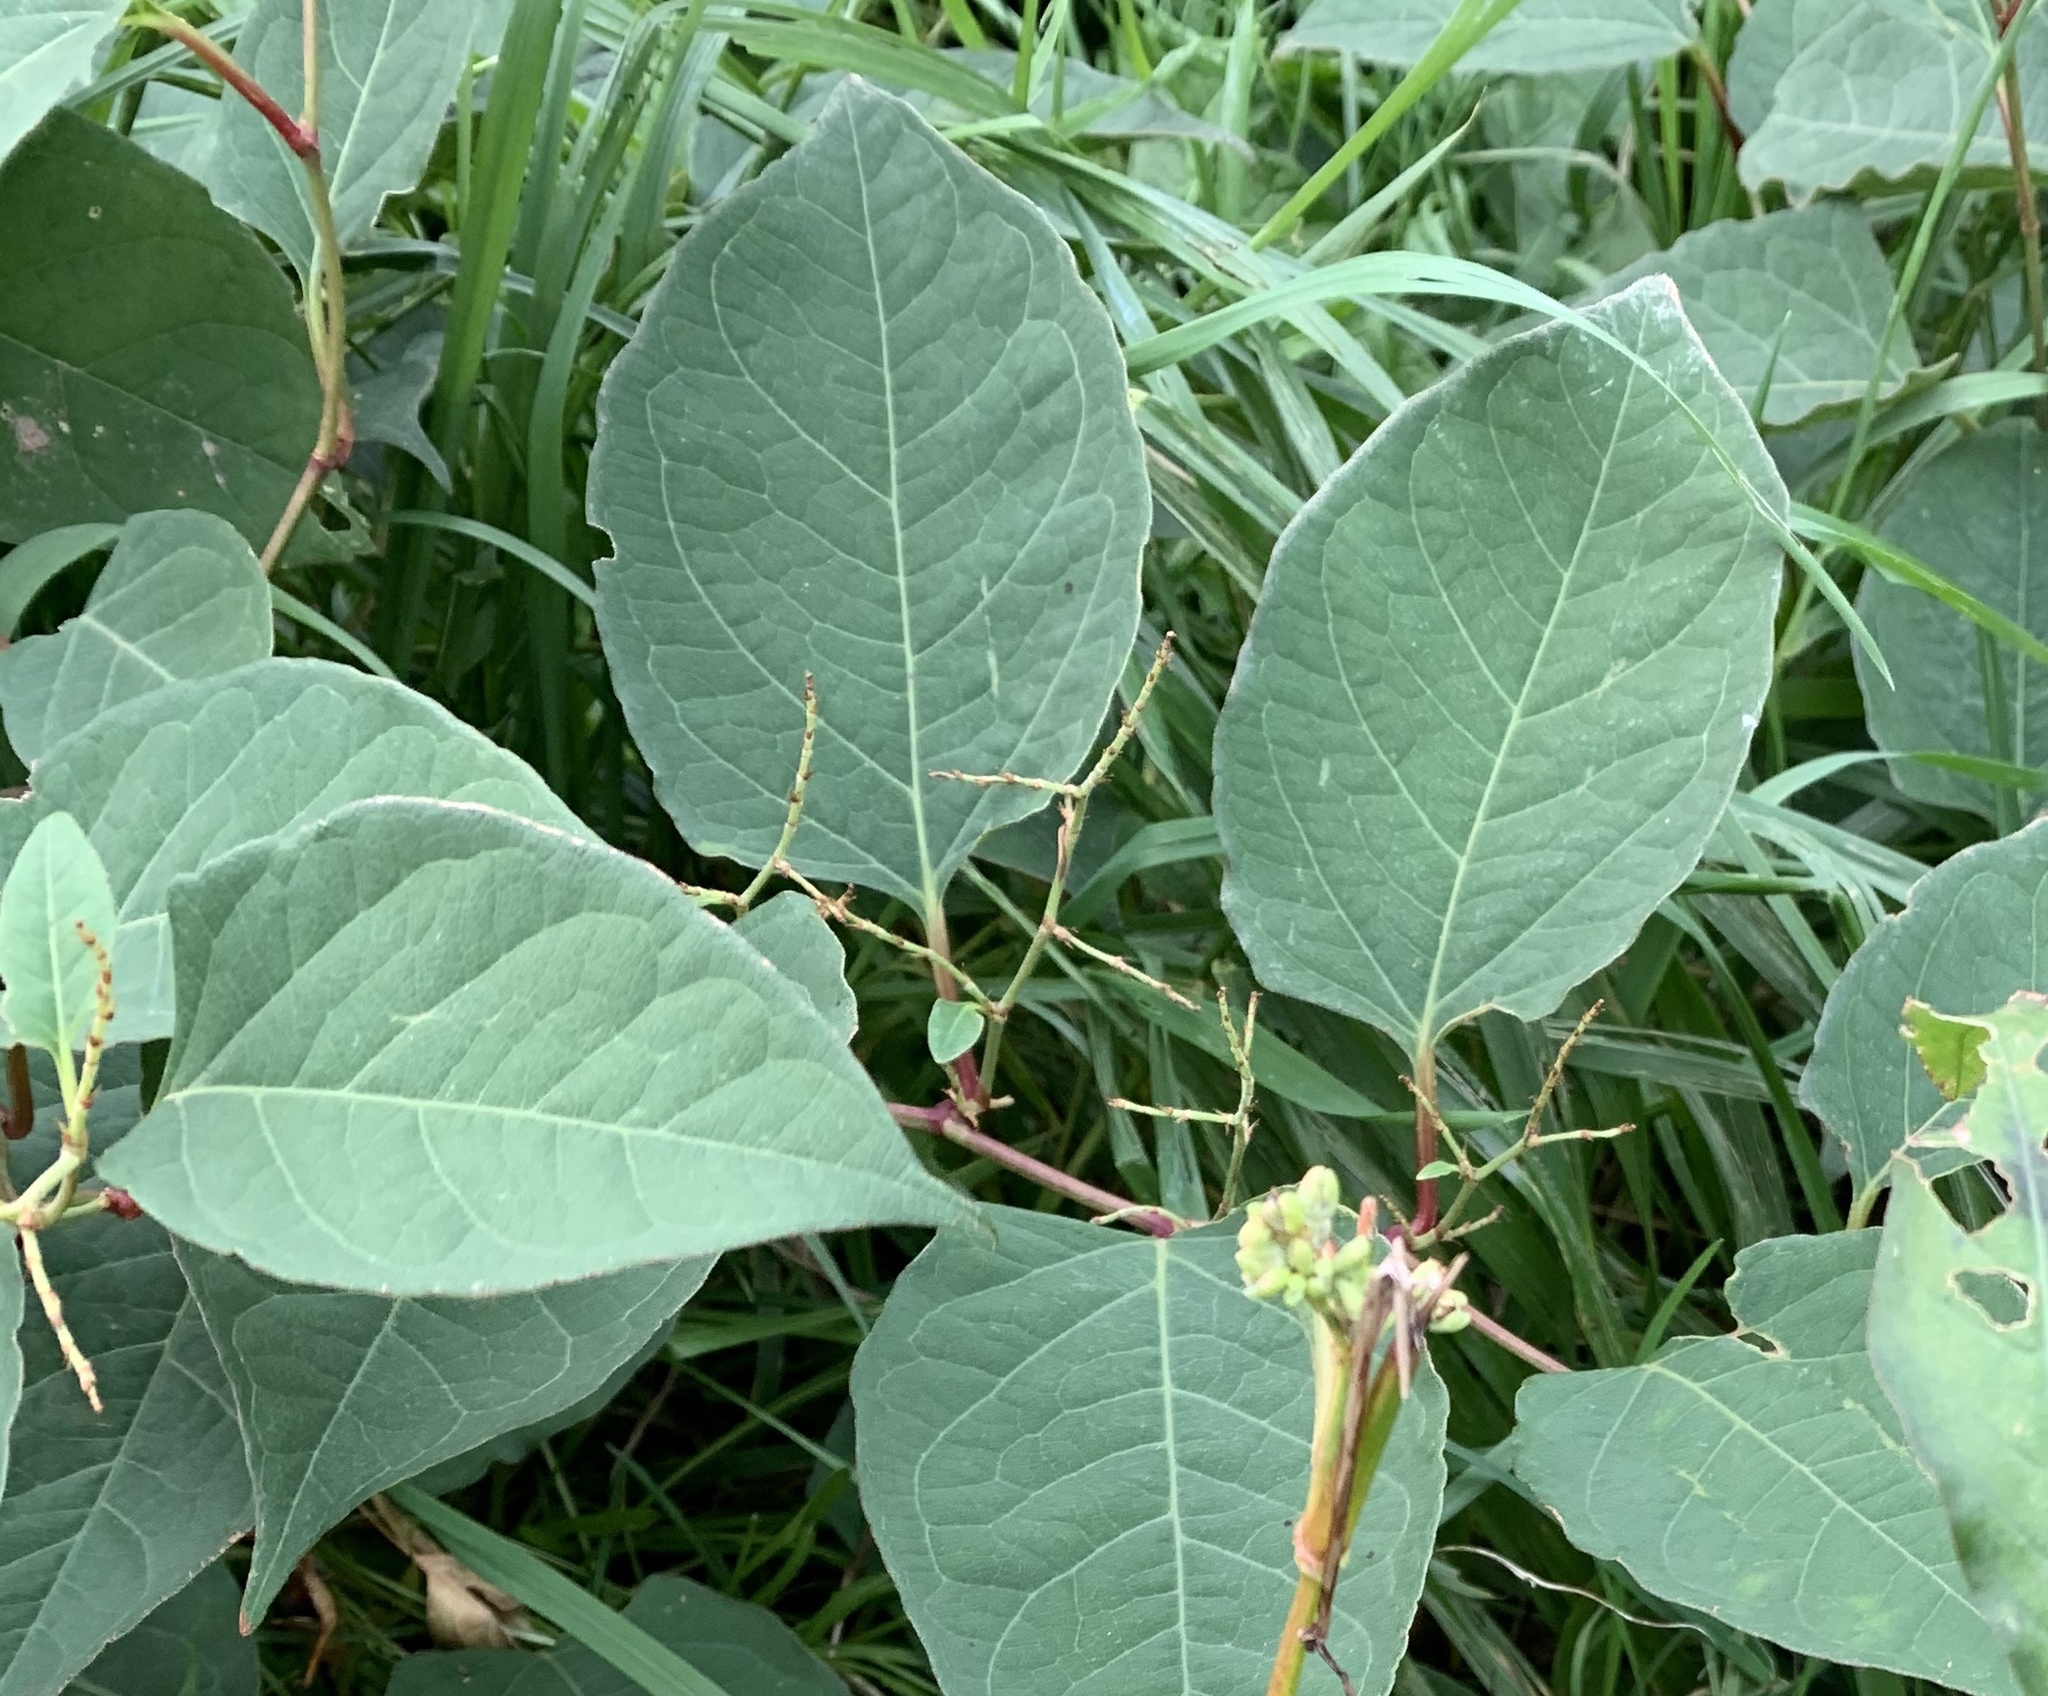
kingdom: Plantae
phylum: Tracheophyta
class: Magnoliopsida
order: Caryophyllales
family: Polygonaceae
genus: Reynoutria
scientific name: Reynoutria japonica
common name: Japanese knotweed
